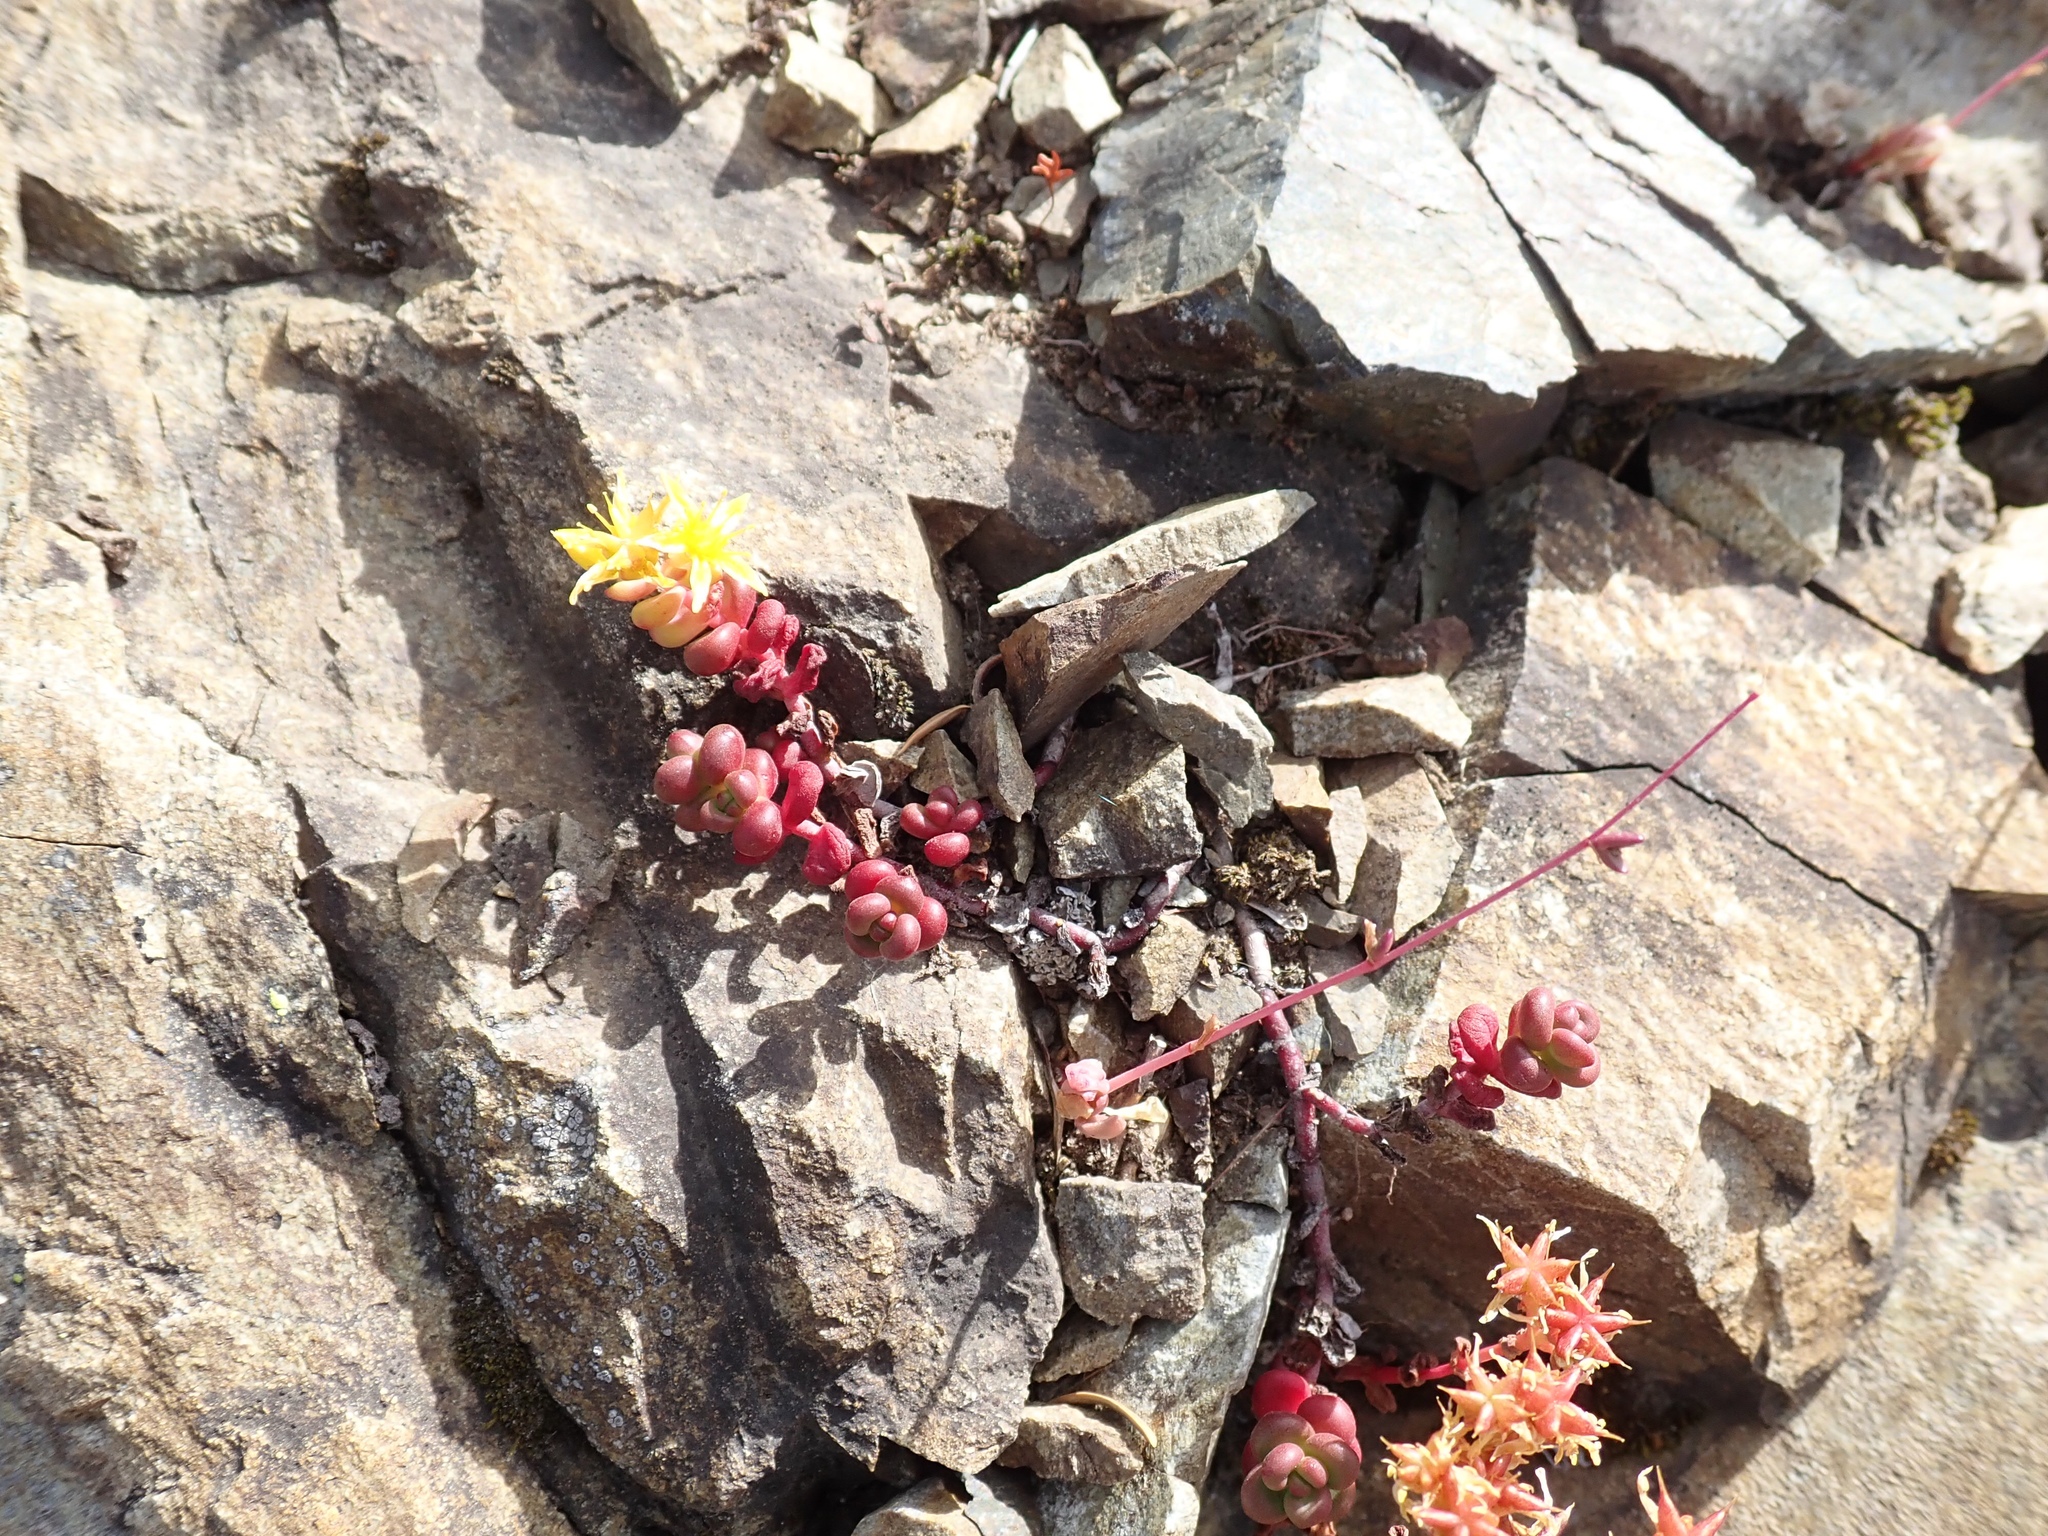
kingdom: Plantae
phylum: Tracheophyta
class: Magnoliopsida
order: Saxifragales
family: Crassulaceae
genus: Sedum
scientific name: Sedum divergens
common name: Cascade stonecrop
